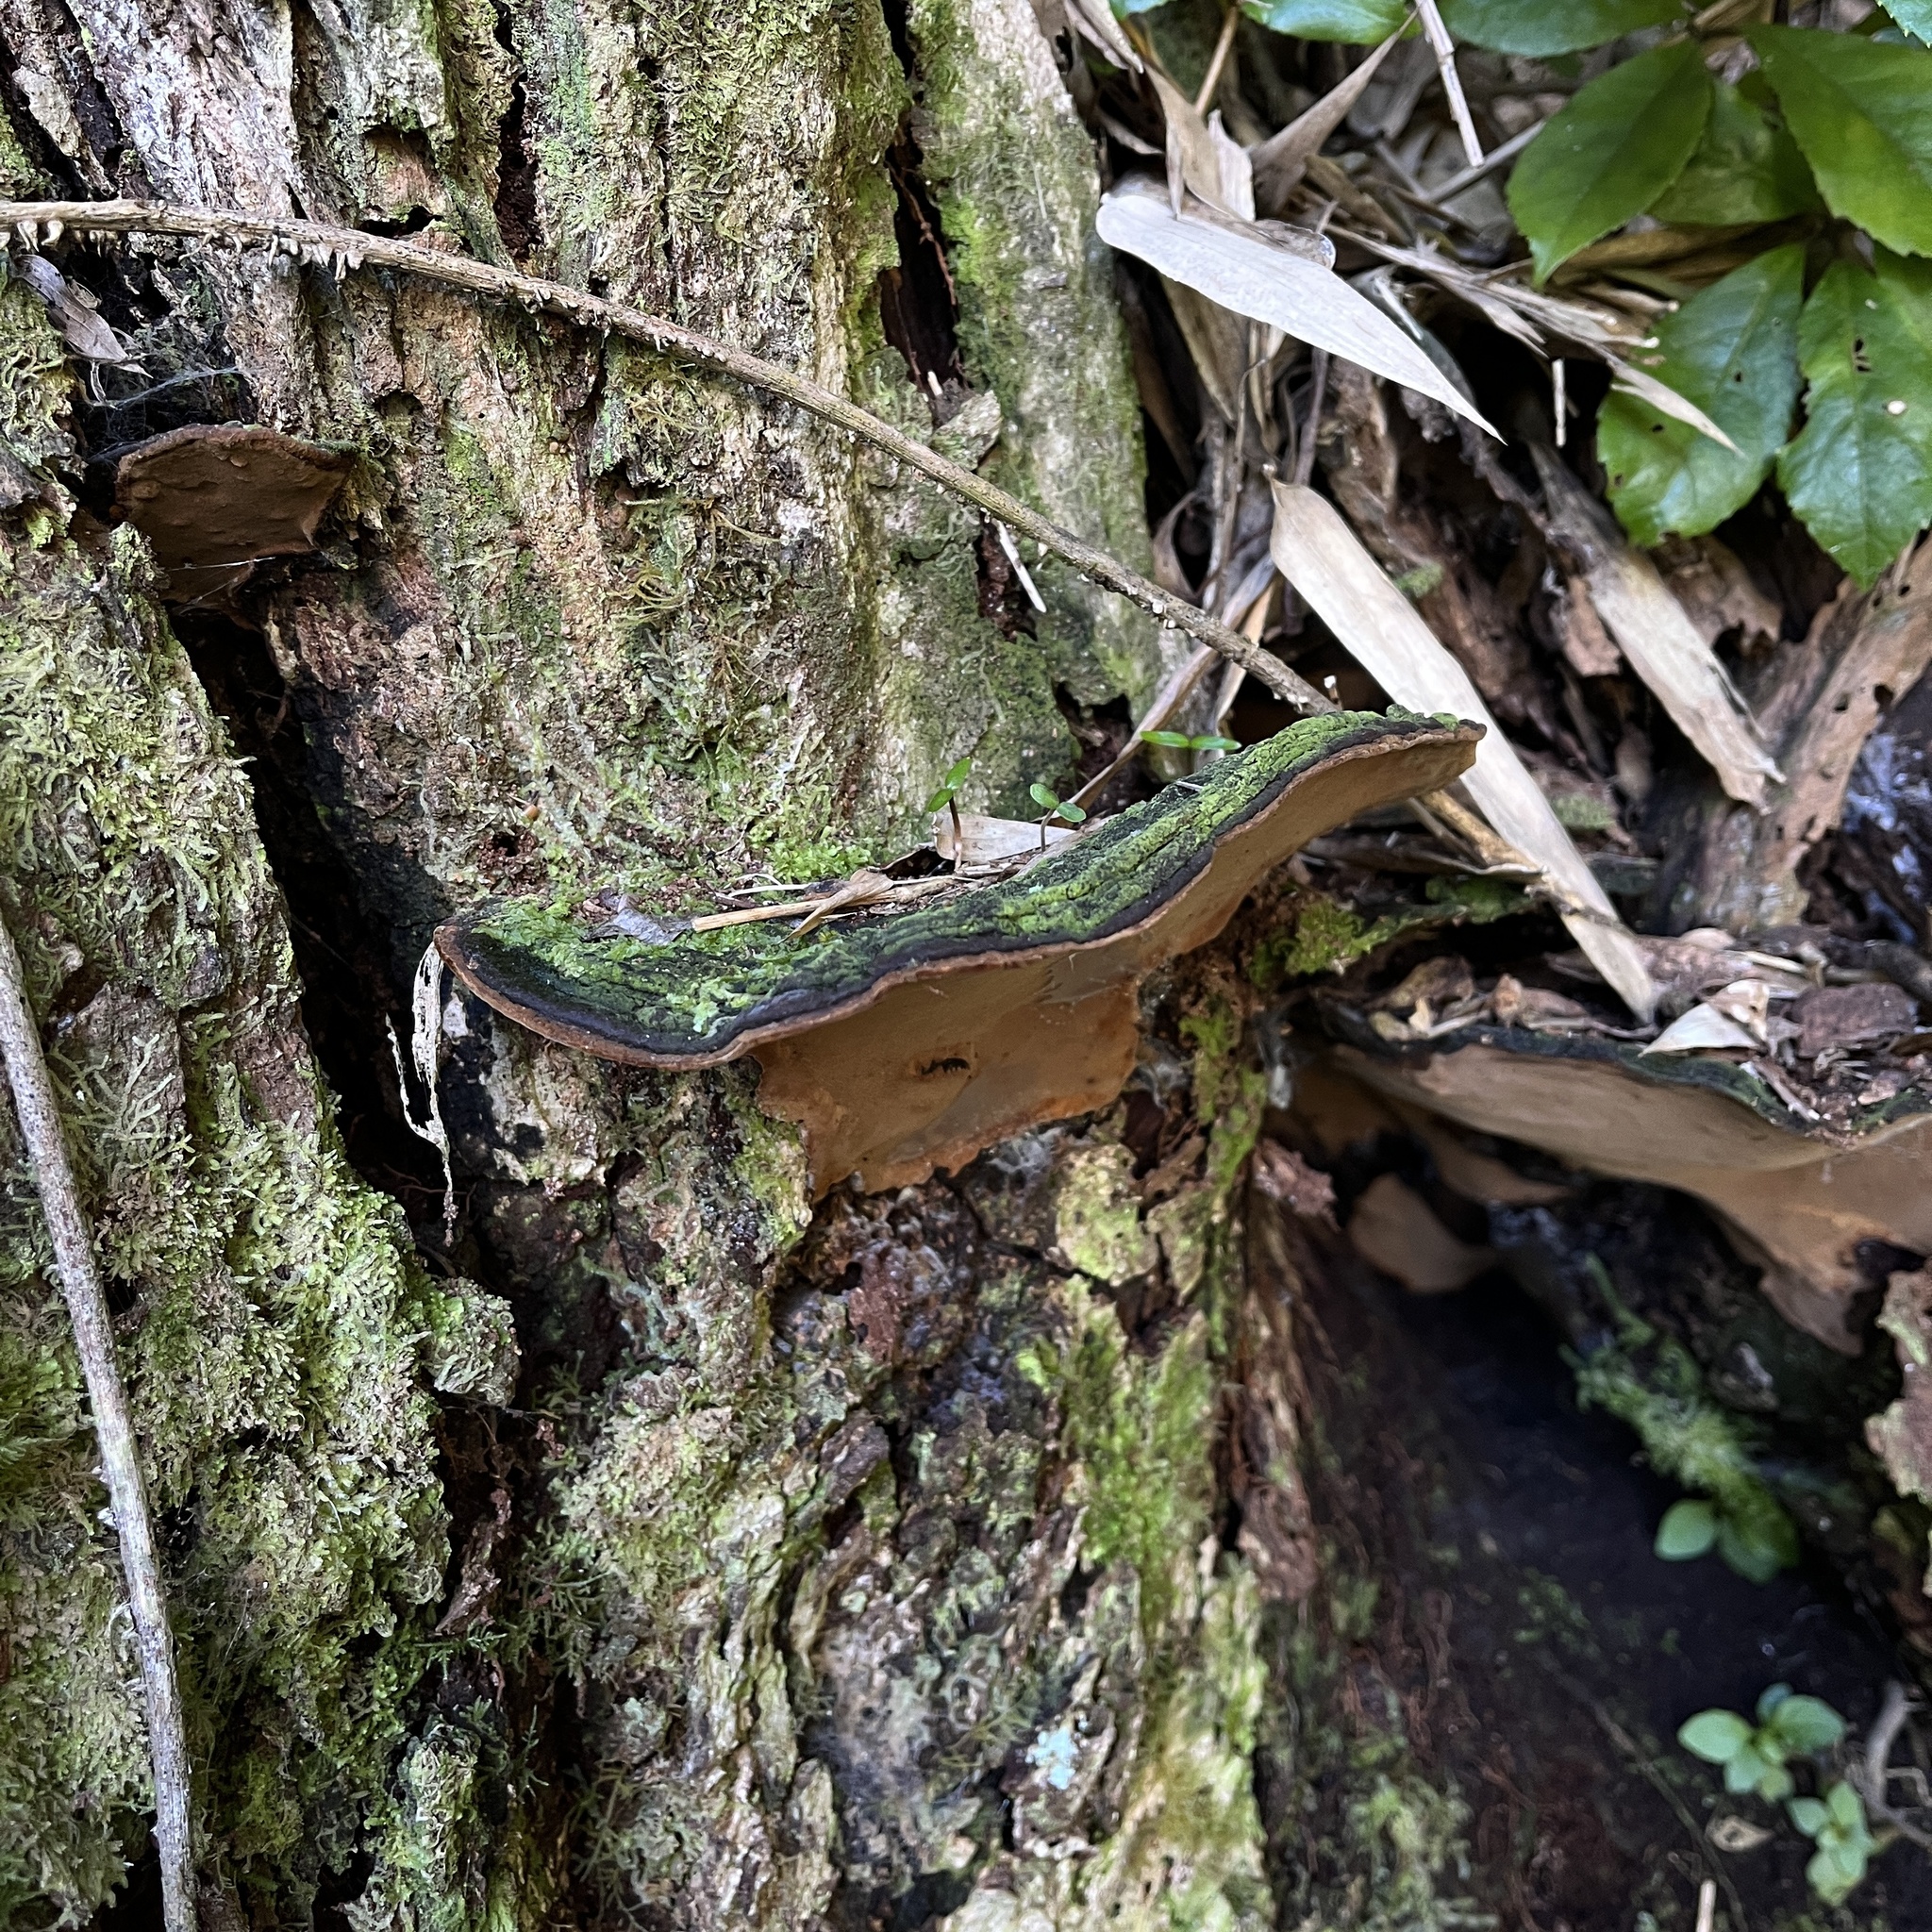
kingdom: Fungi
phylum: Basidiomycota
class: Agaricomycetes
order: Hymenochaetales
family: Hymenochaetaceae
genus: Fuscoporia
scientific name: Fuscoporia senex
